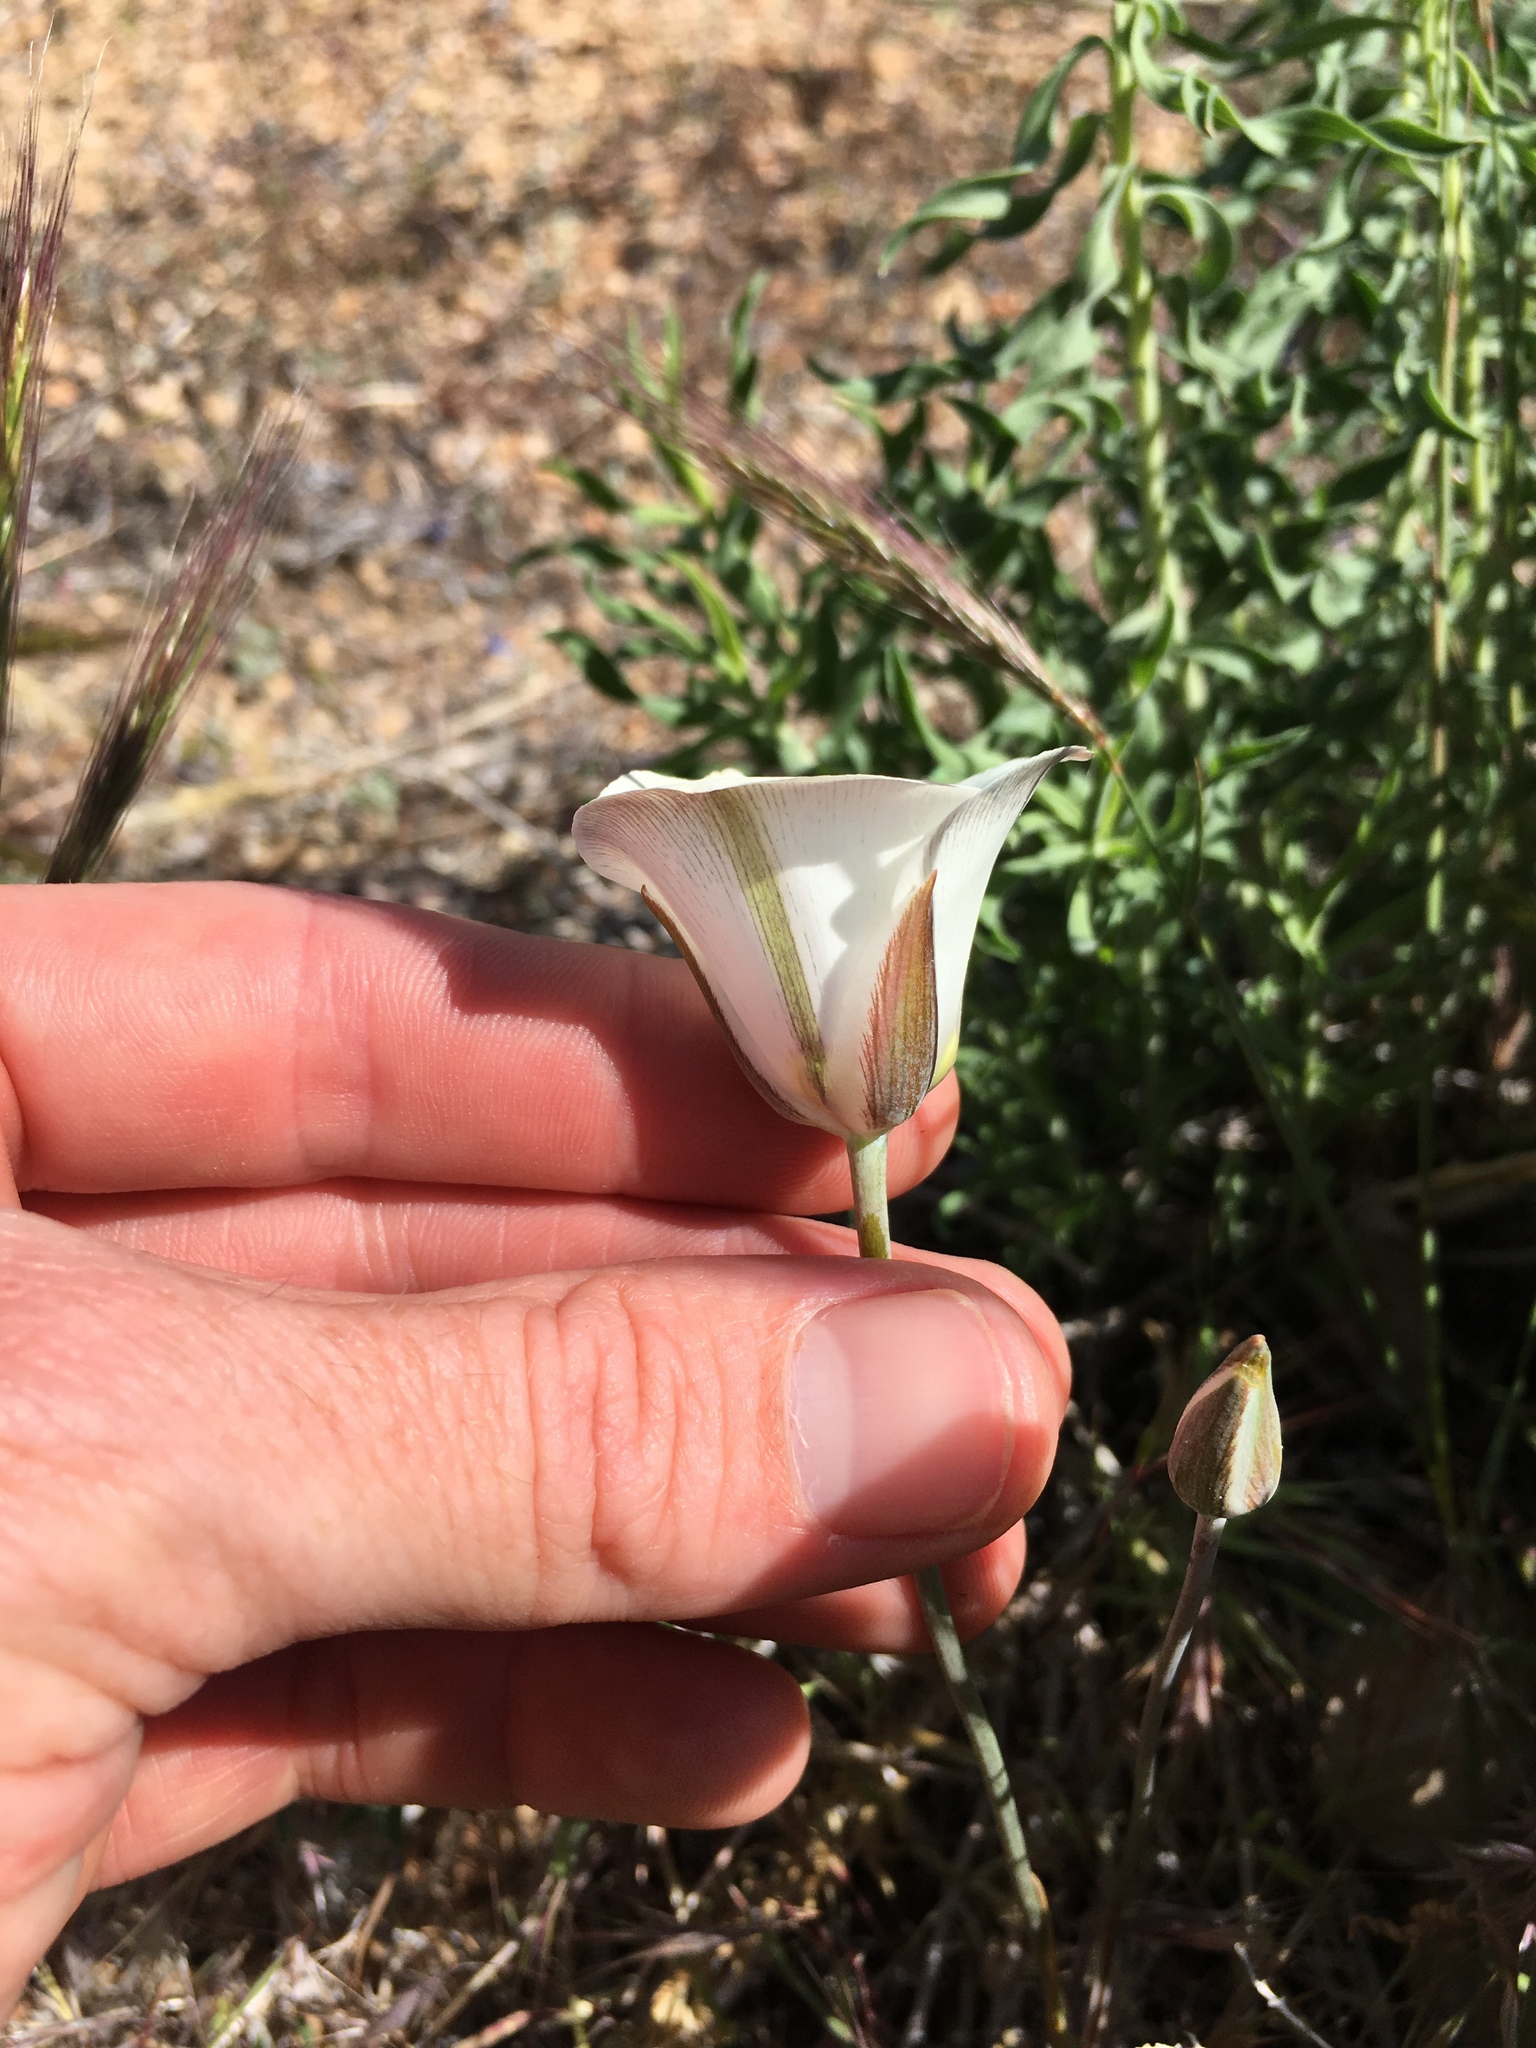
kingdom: Plantae
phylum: Tracheophyta
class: Liliopsida
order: Liliales
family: Liliaceae
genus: Calochortus
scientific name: Calochortus bruneaunis
